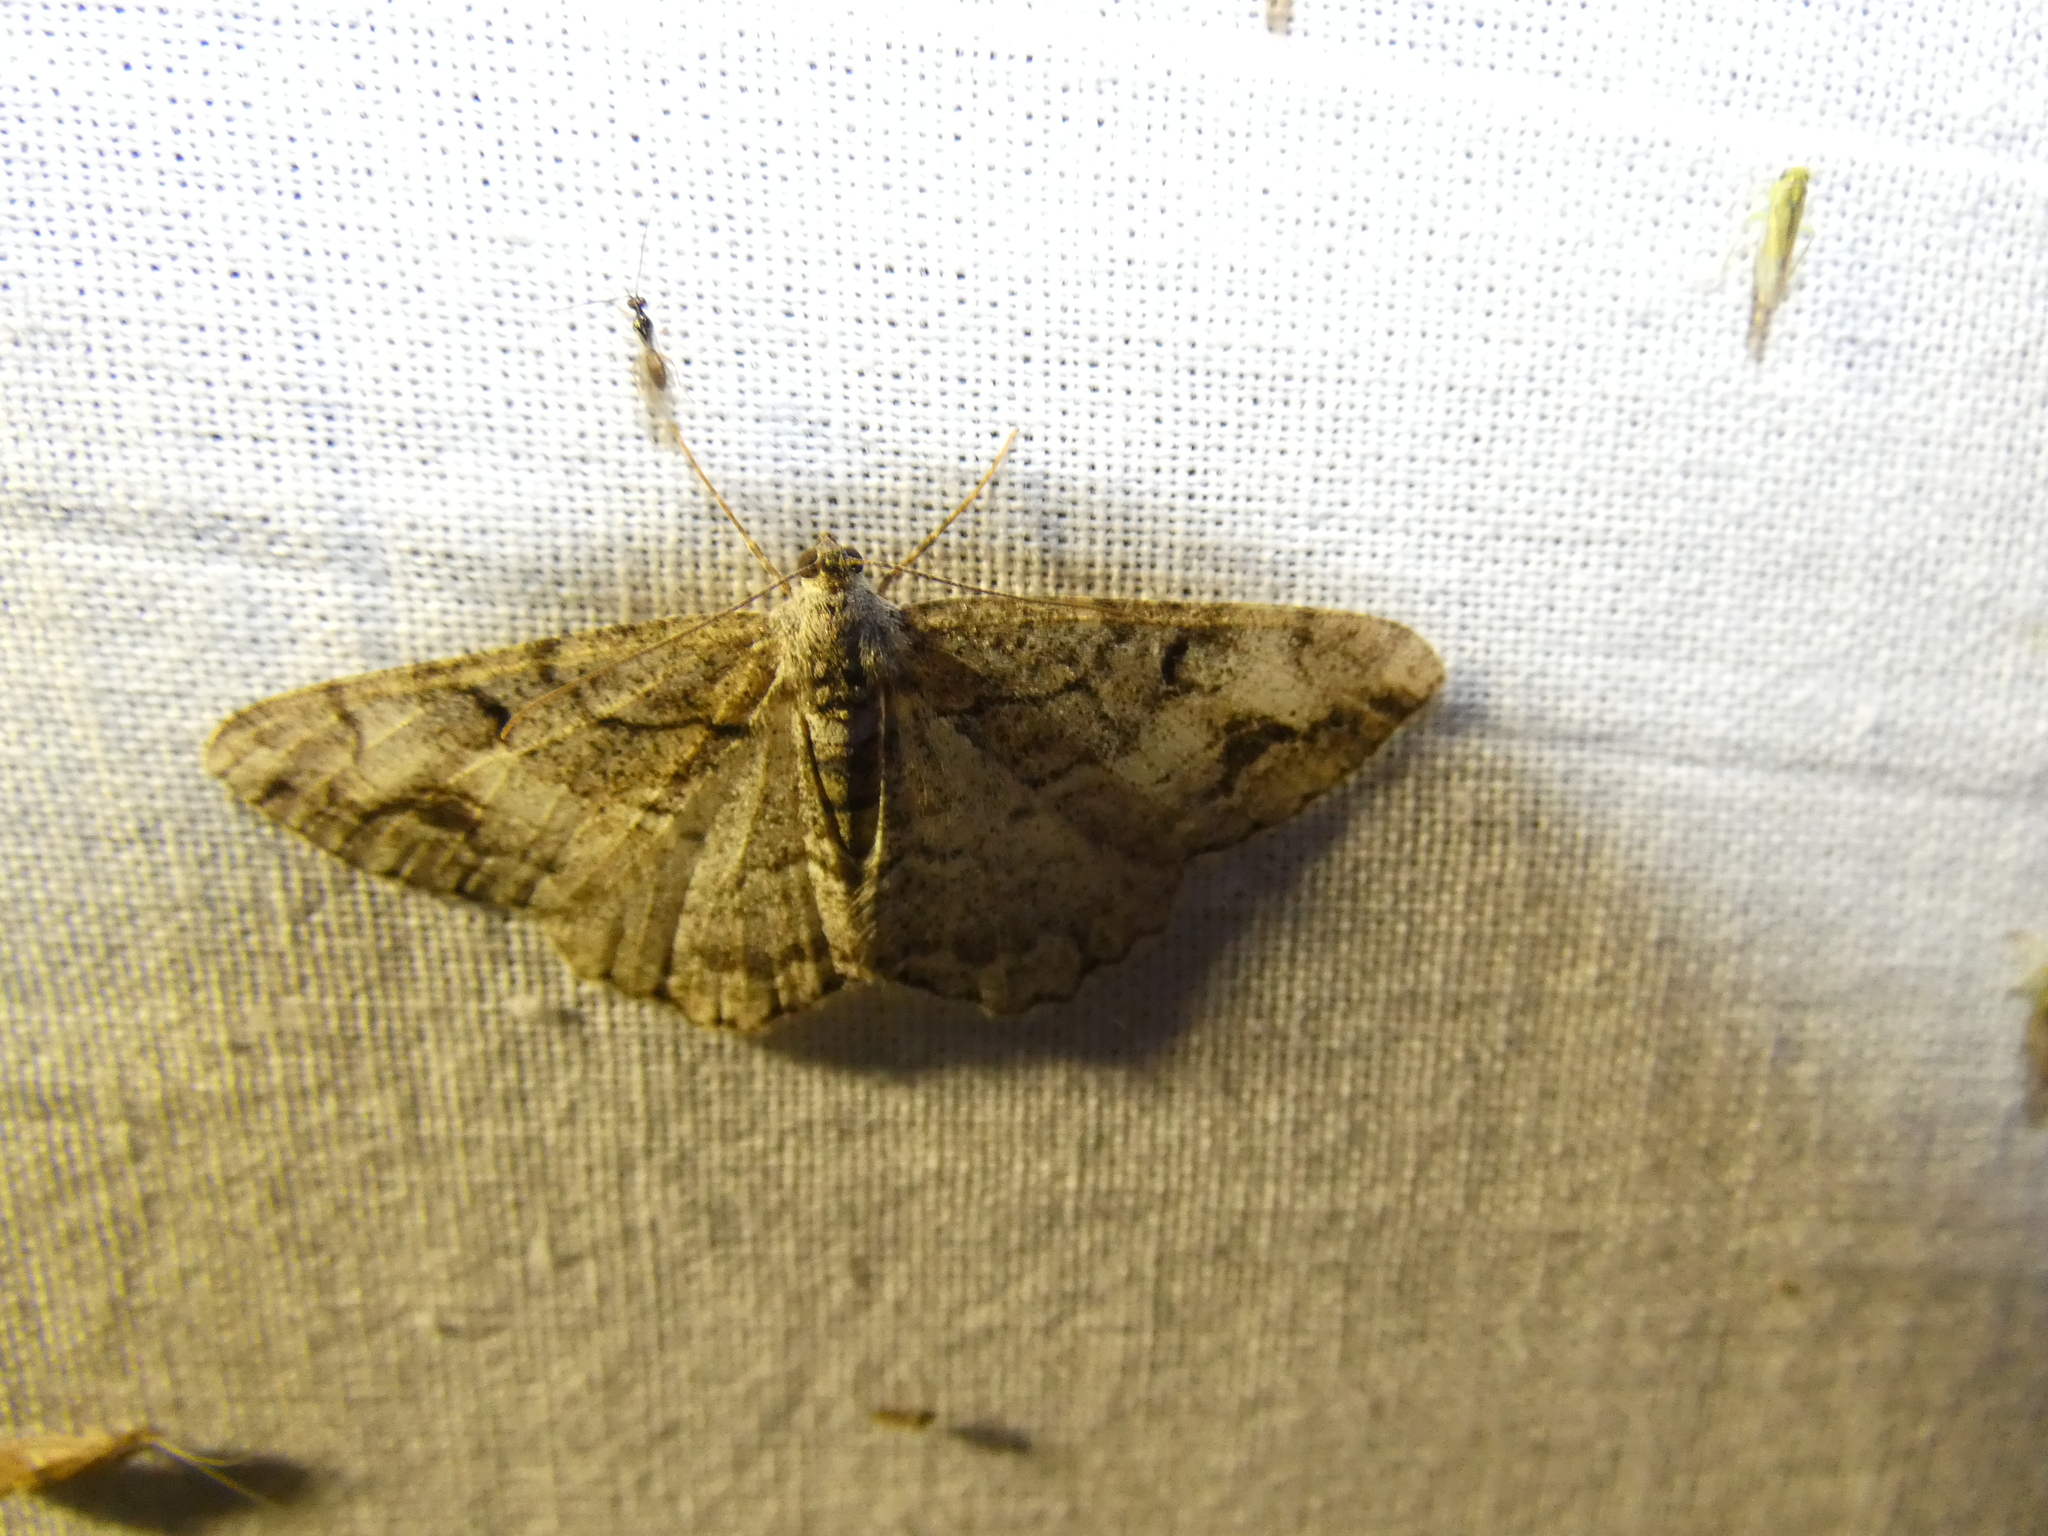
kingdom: Animalia
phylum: Arthropoda
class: Insecta
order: Lepidoptera
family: Geometridae
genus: Alcis
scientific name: Alcis deversata
